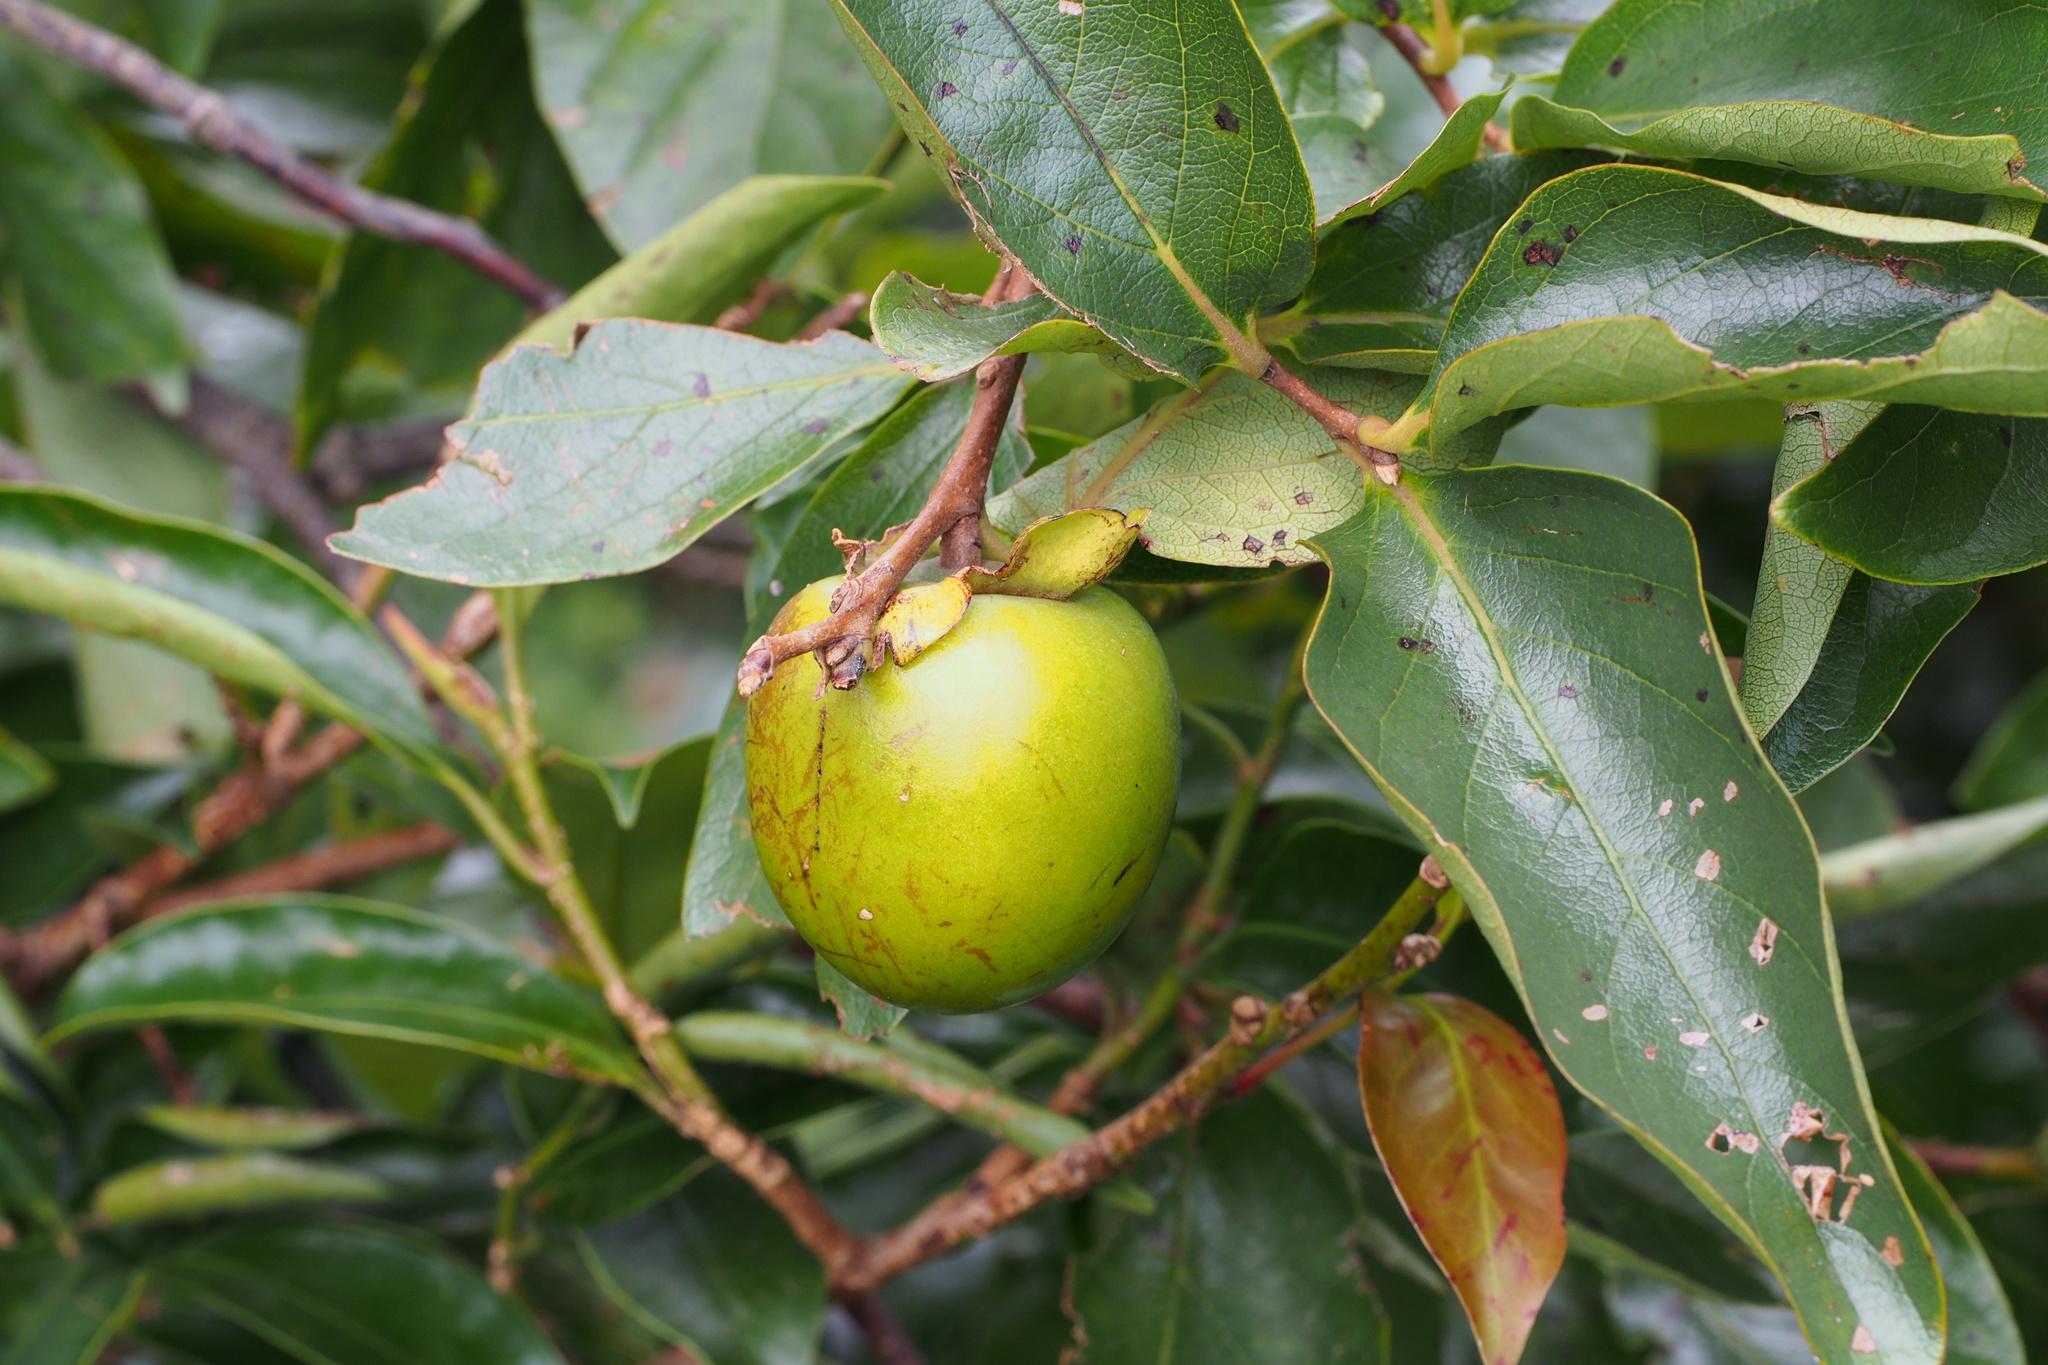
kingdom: Plantae
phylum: Tracheophyta
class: Magnoliopsida
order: Ericales
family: Ebenaceae
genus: Diospyros
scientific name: Diospyros kaki
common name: Persimmon
